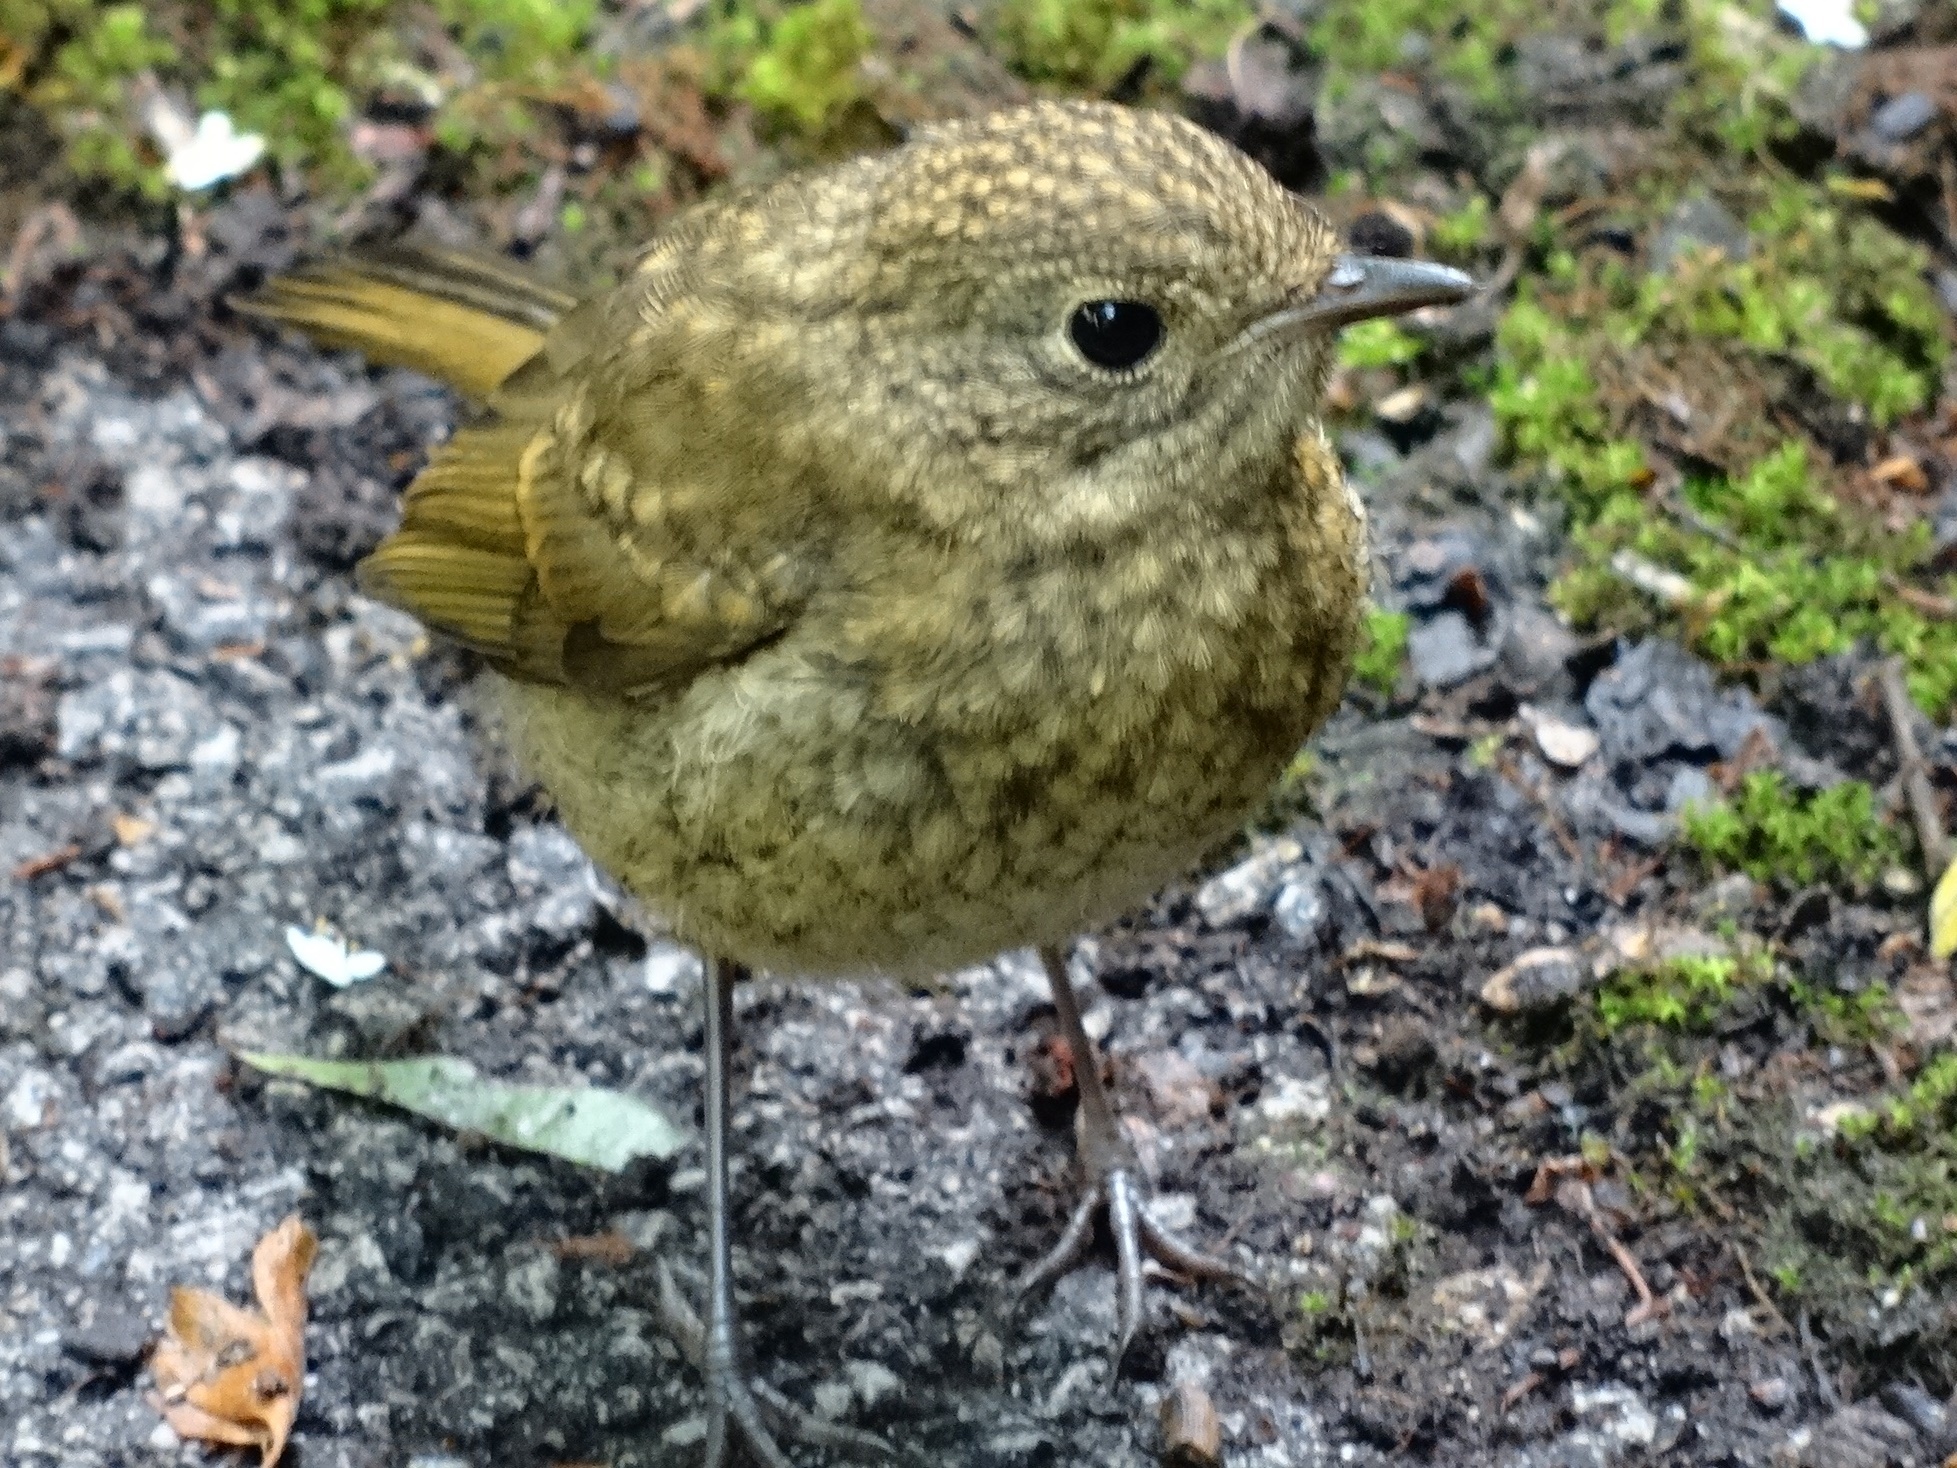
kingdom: Animalia
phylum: Chordata
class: Aves
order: Passeriformes
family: Muscicapidae
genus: Erithacus
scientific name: Erithacus rubecula
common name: European robin
